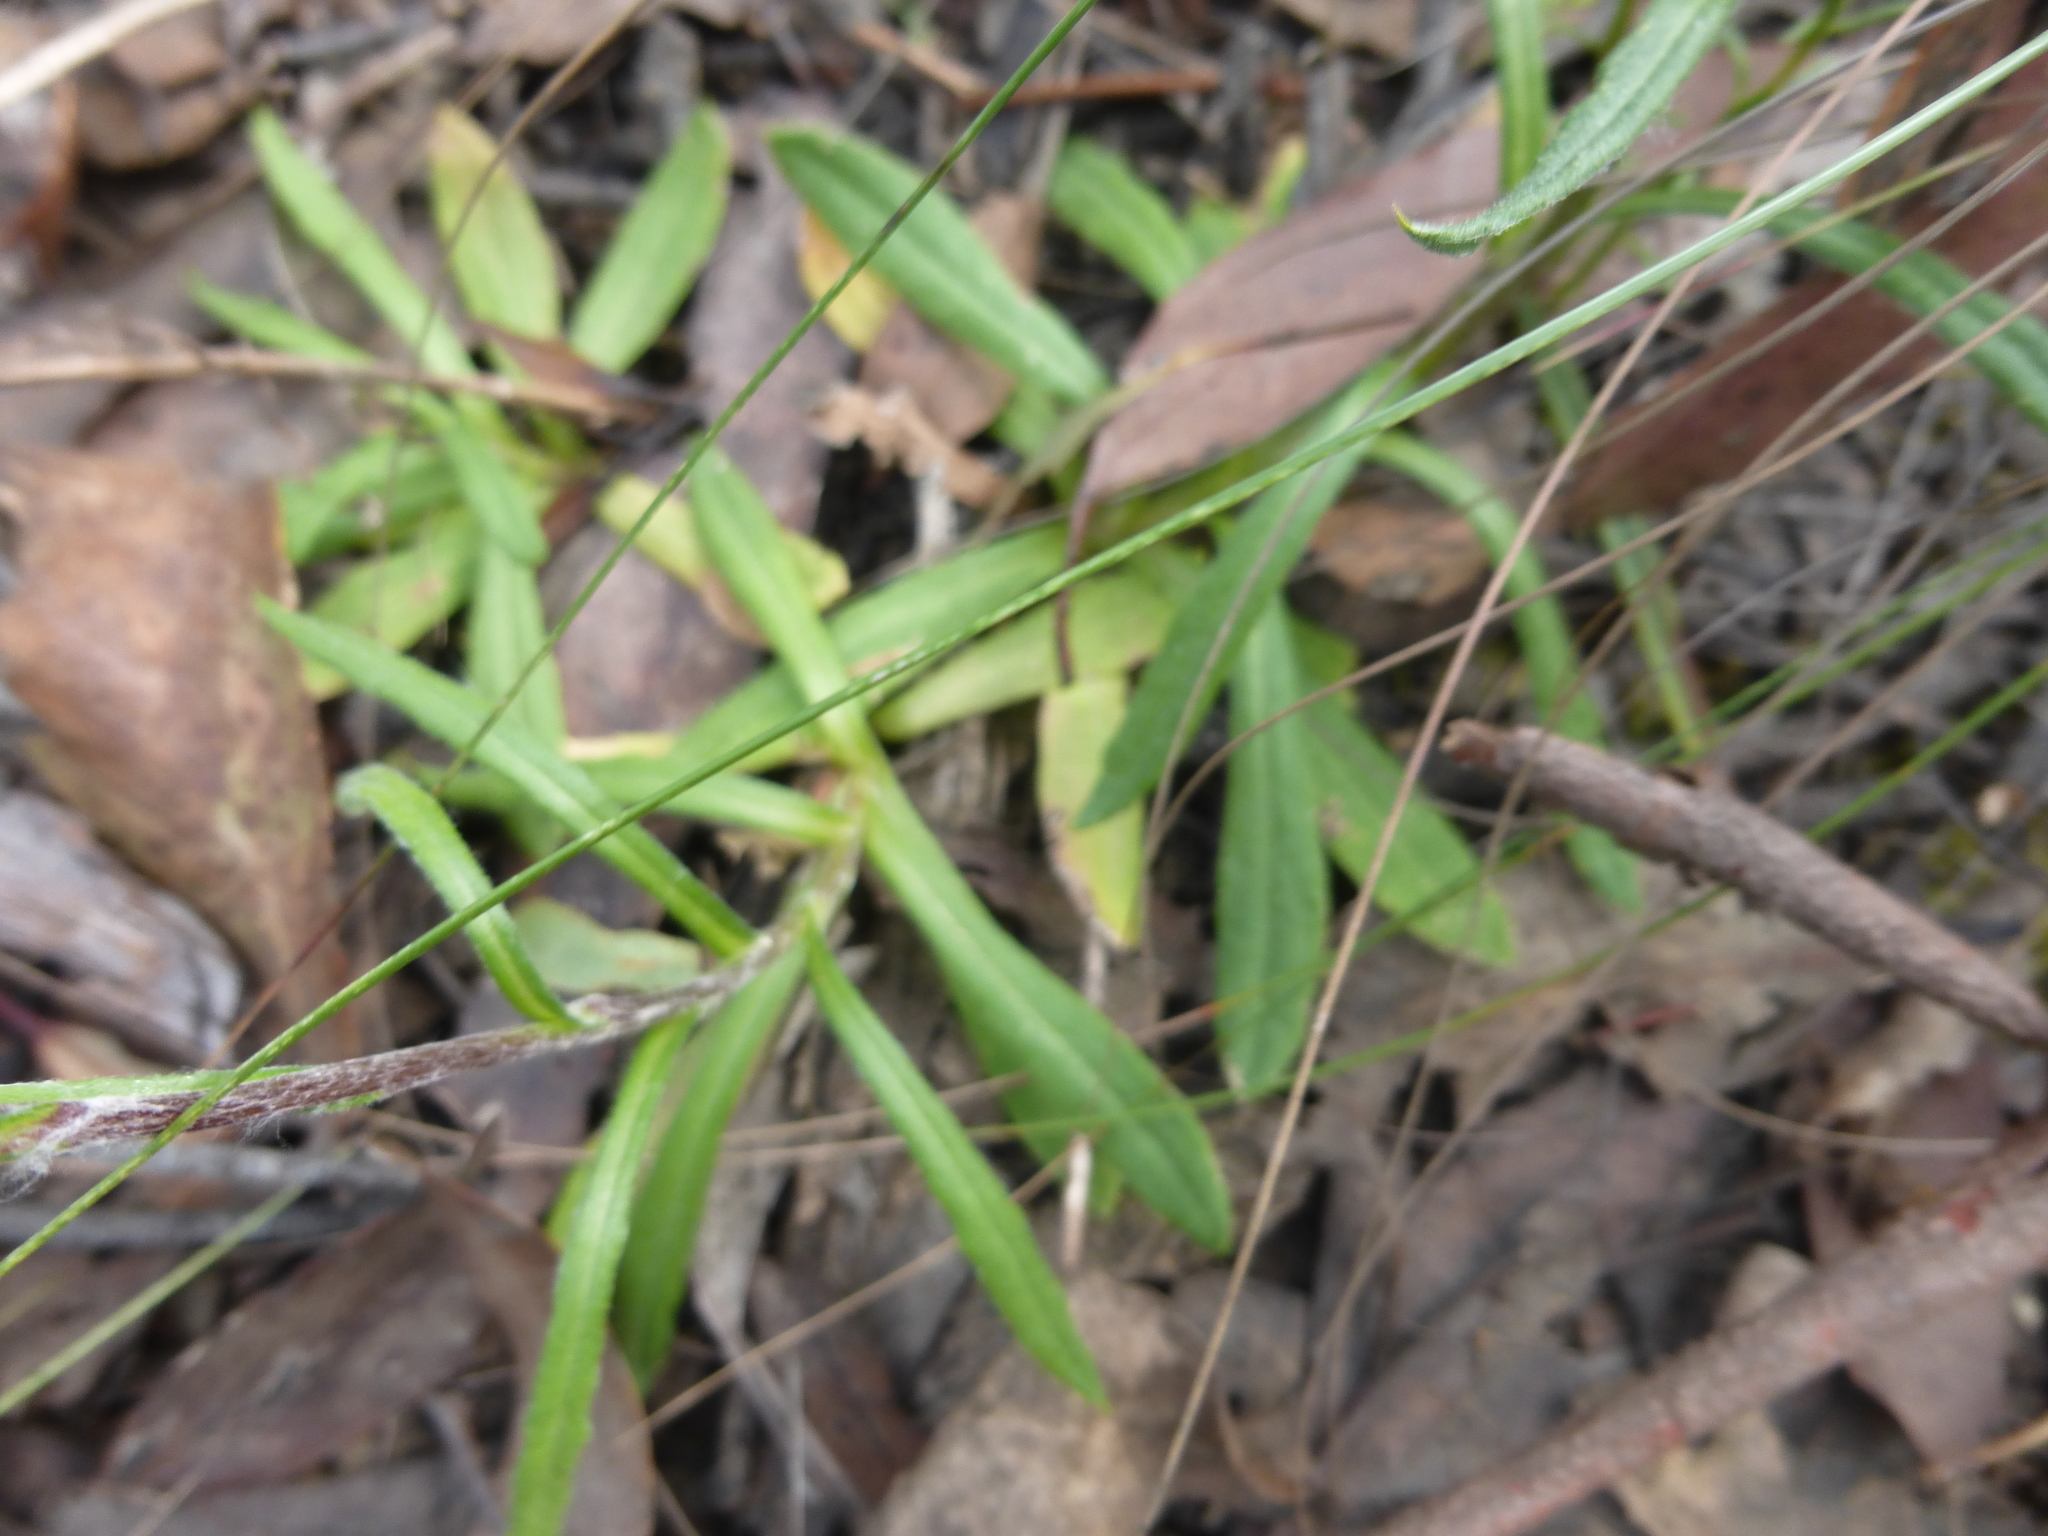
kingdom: Plantae
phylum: Tracheophyta
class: Magnoliopsida
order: Asterales
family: Asteraceae
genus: Coronidium
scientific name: Coronidium scorpioides
